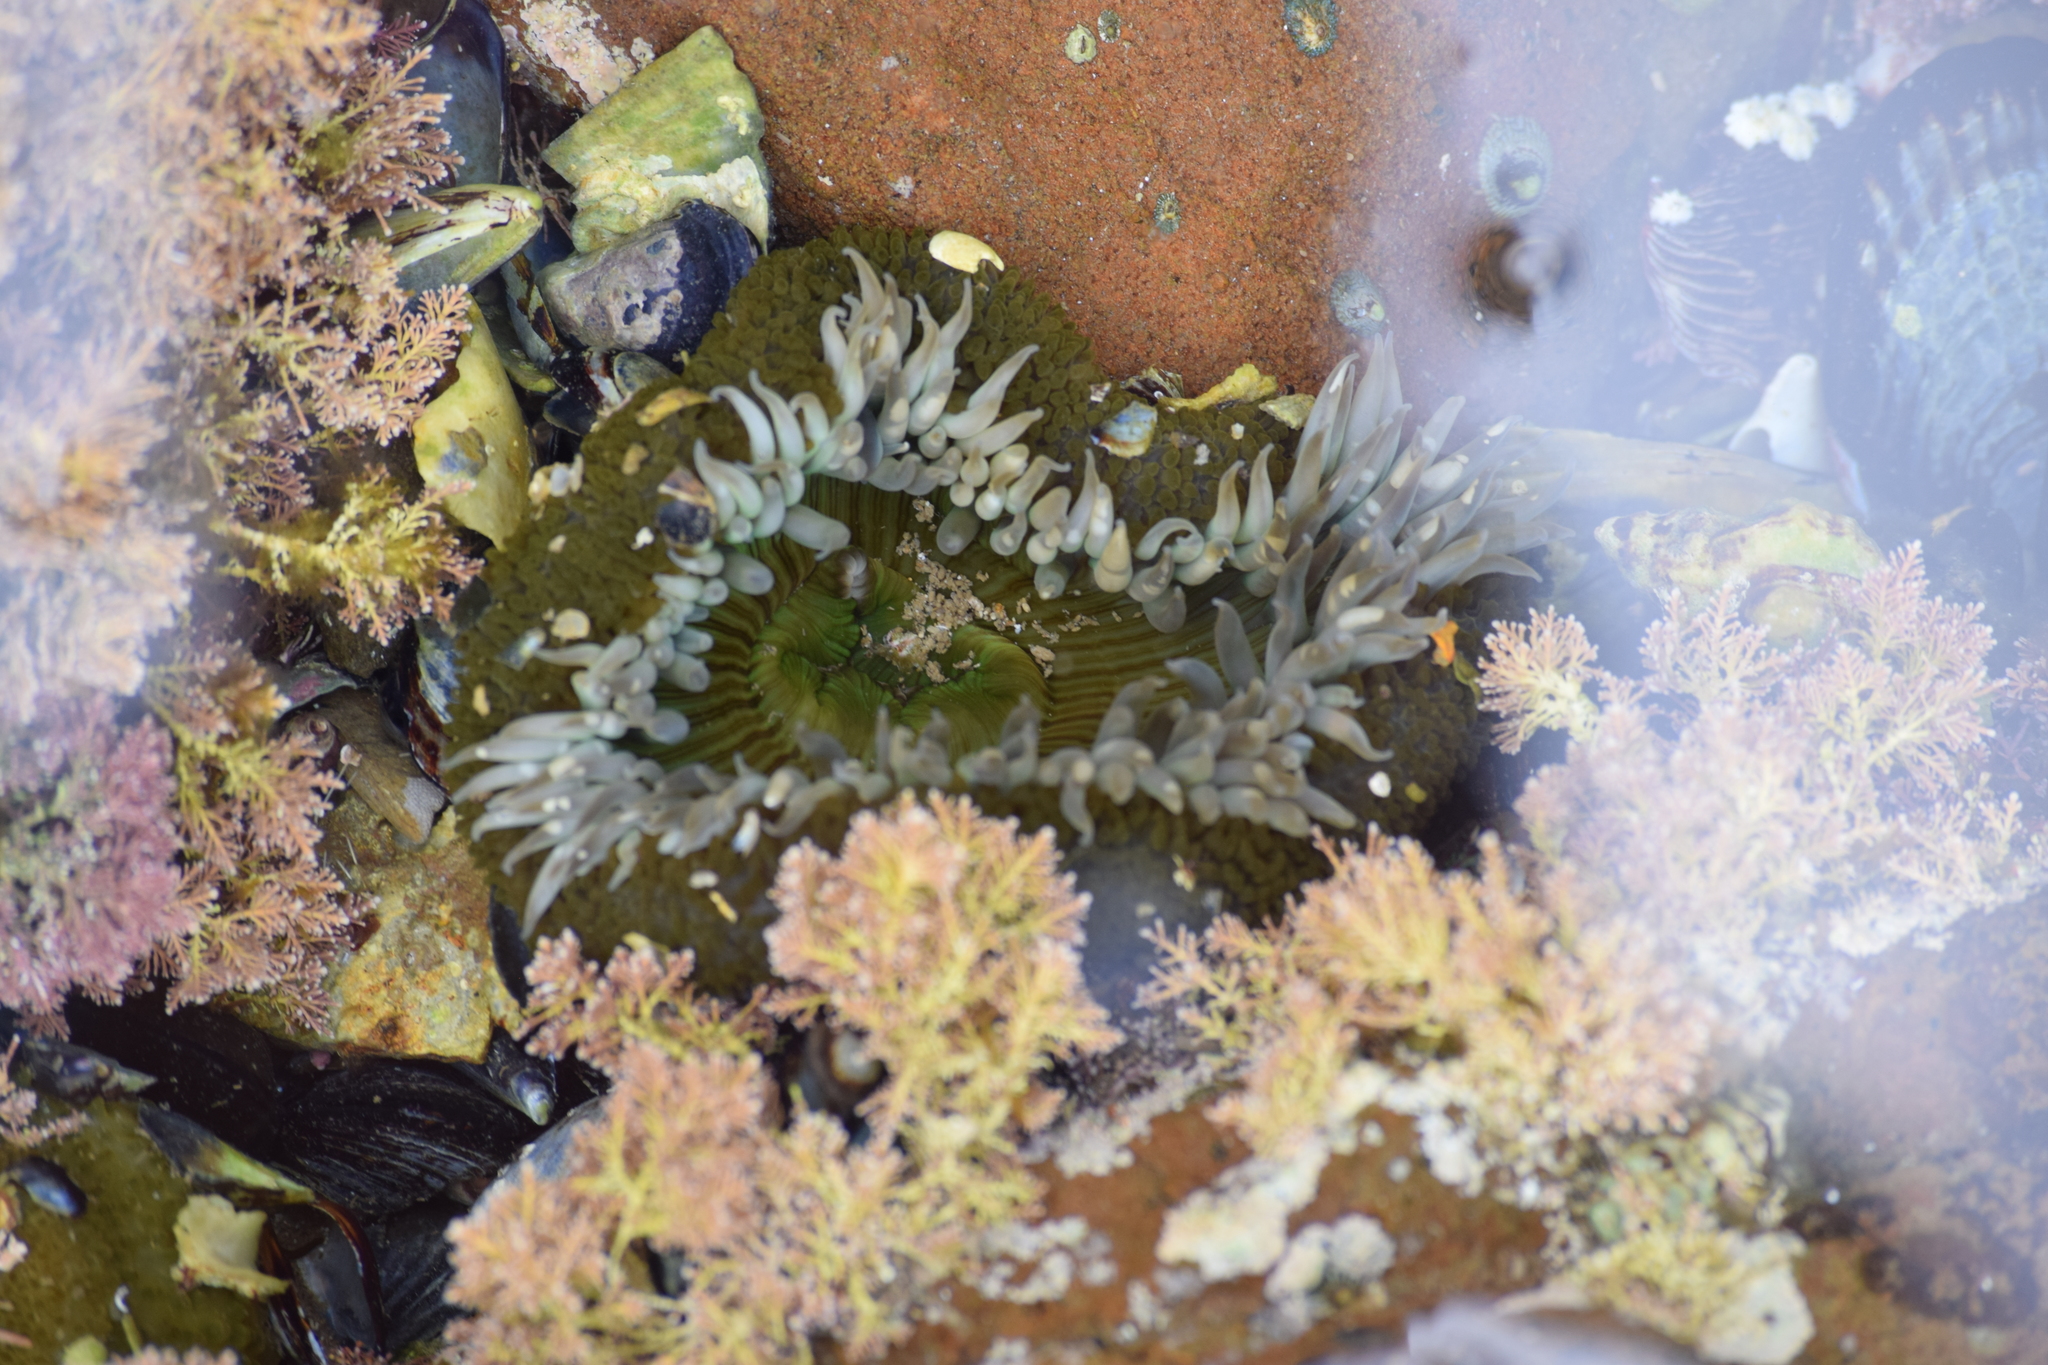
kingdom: Animalia
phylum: Cnidaria
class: Anthozoa
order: Actiniaria
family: Actiniidae
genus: Anthopleura
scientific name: Anthopleura sola
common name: Sun anemone
